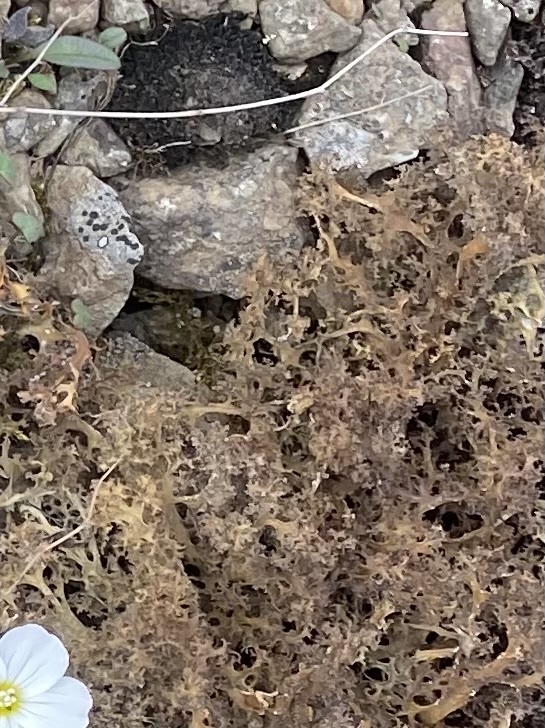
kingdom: Fungi
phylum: Ascomycota
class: Lecanoromycetes
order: Lecanorales
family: Parmeliaceae
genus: Cetraria
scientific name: Cetraria islandica
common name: Iceland lichen
